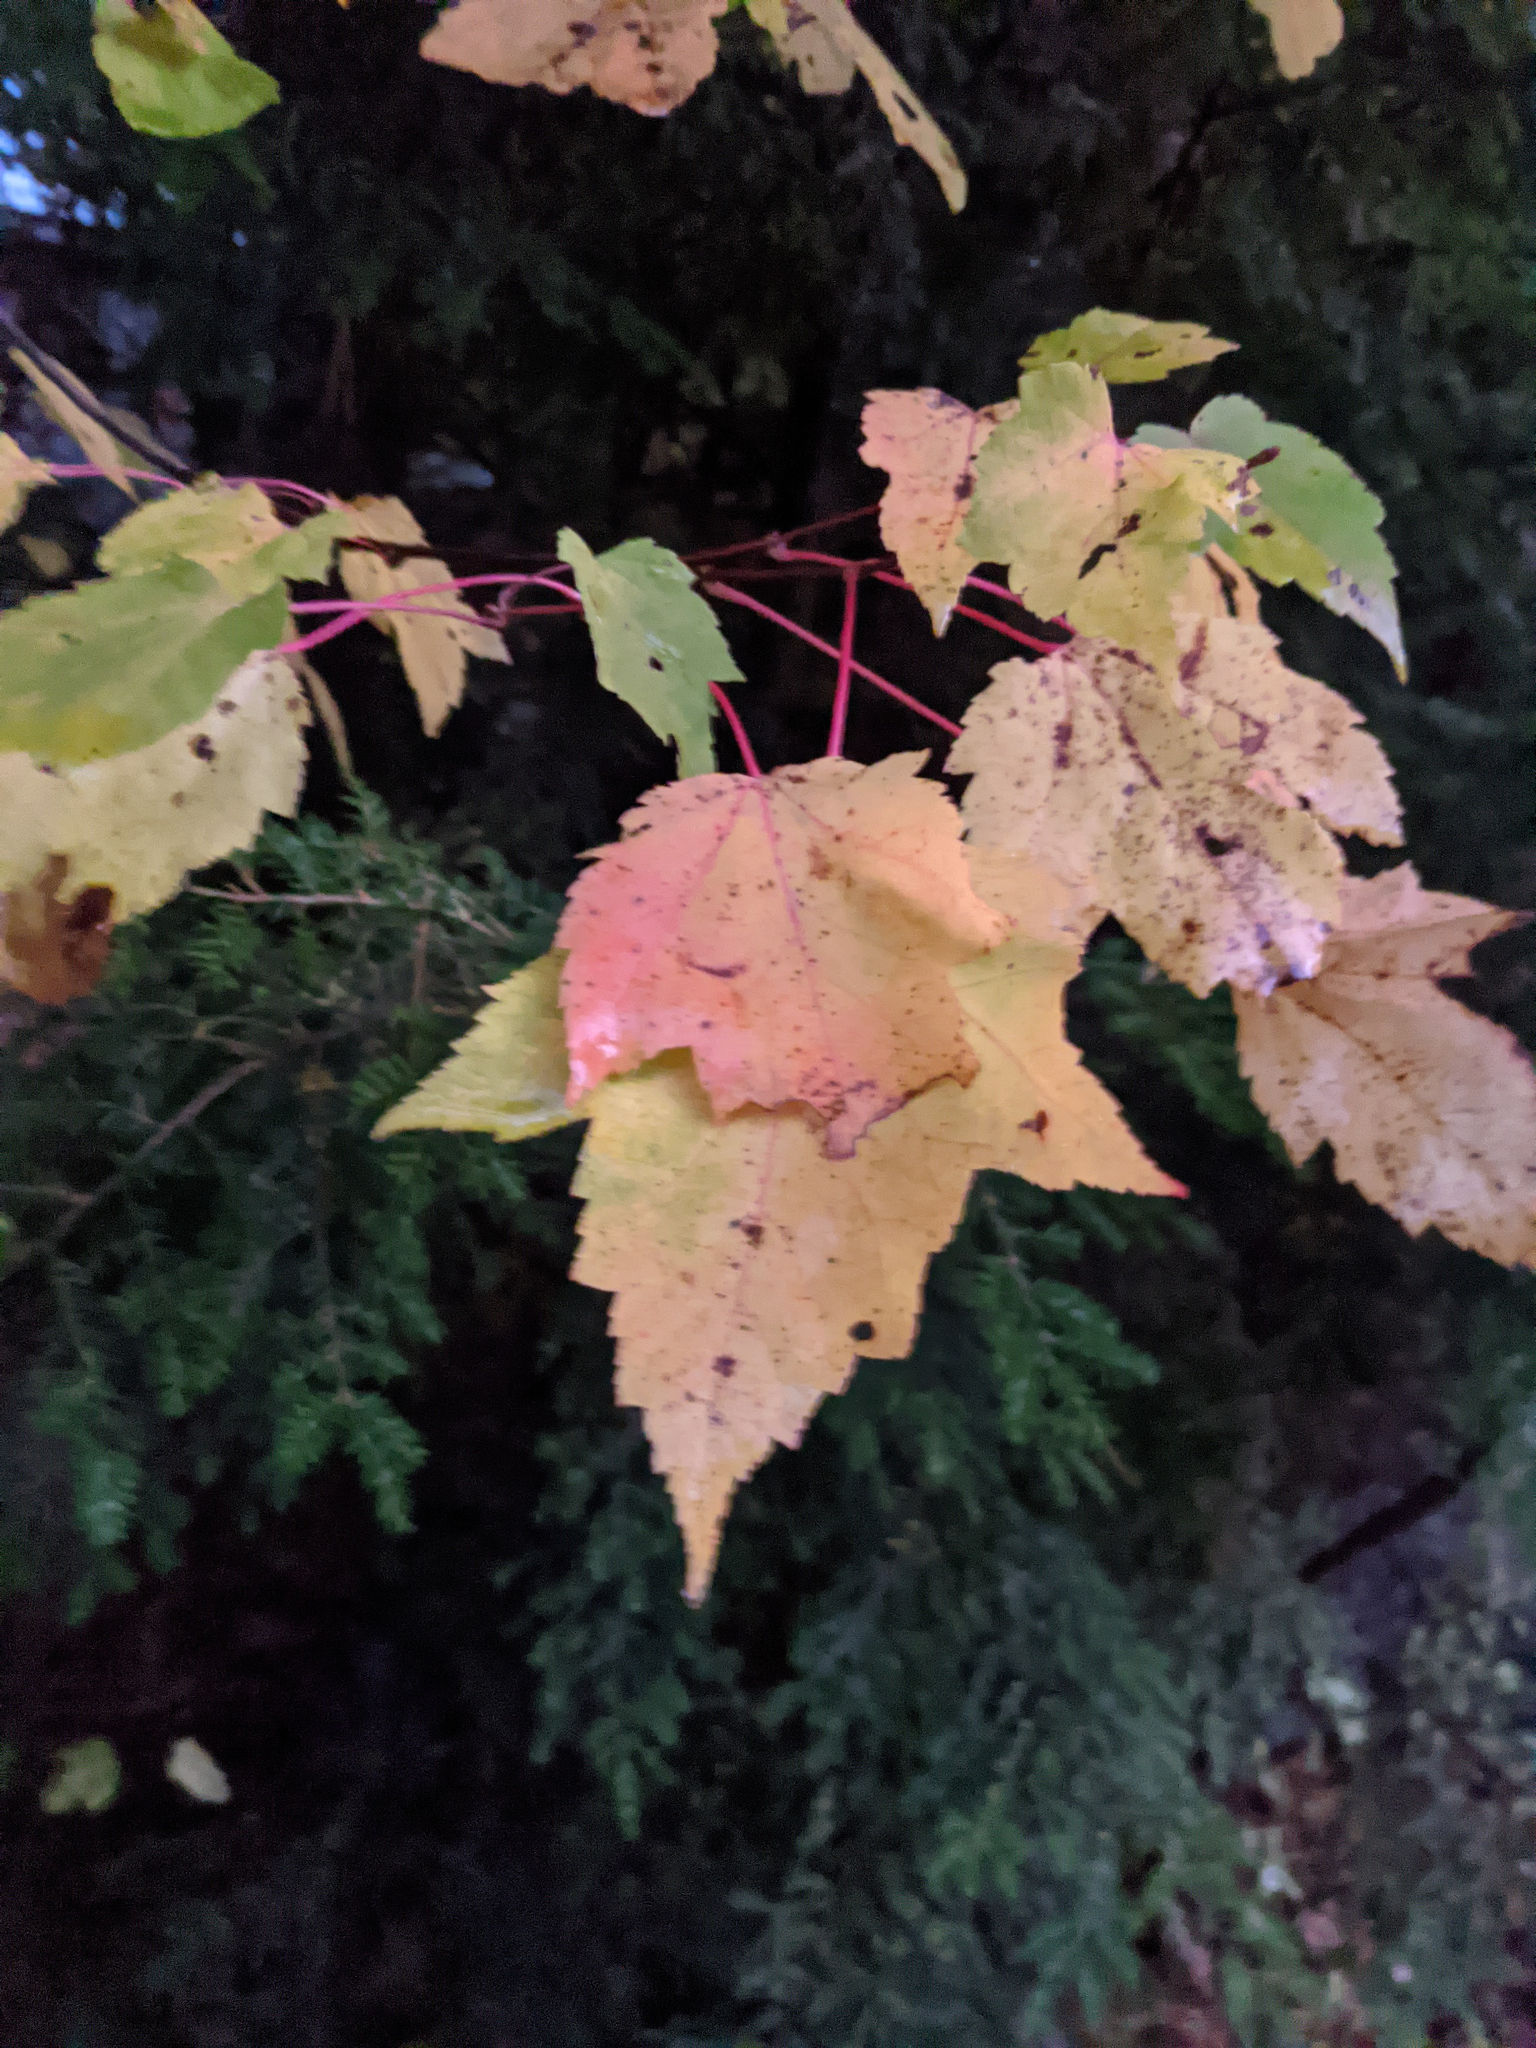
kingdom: Plantae
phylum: Tracheophyta
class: Magnoliopsida
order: Sapindales
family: Sapindaceae
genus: Acer
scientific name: Acer rubrum
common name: Red maple
